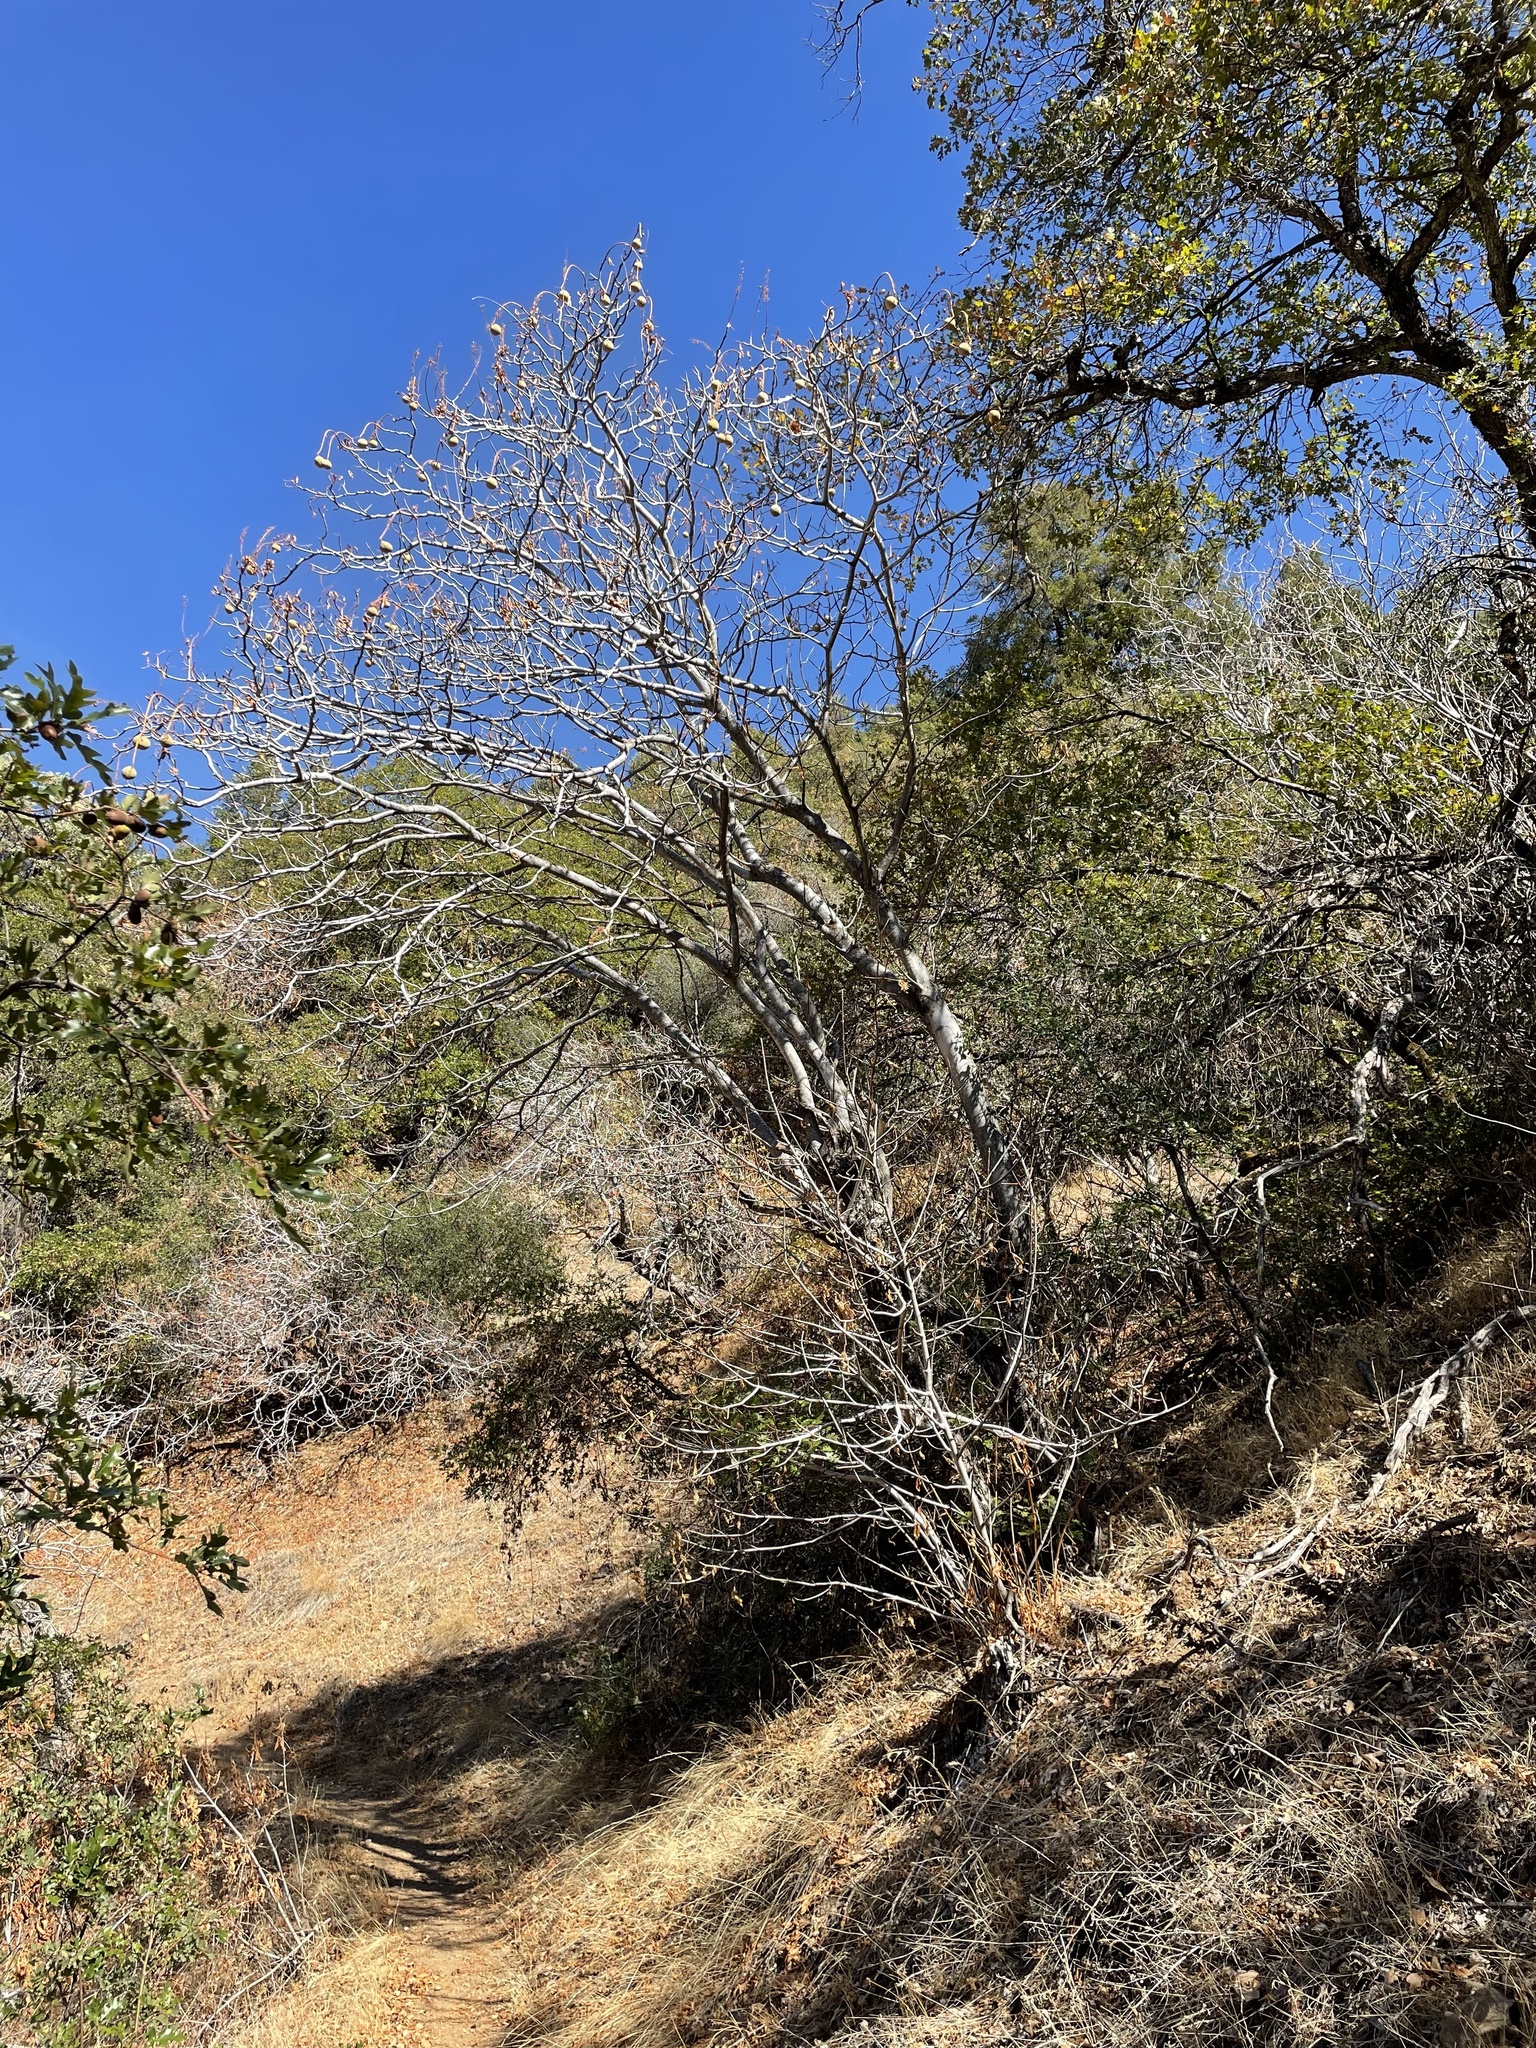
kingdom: Plantae
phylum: Tracheophyta
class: Magnoliopsida
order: Sapindales
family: Sapindaceae
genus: Aesculus
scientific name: Aesculus californica
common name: California buckeye
